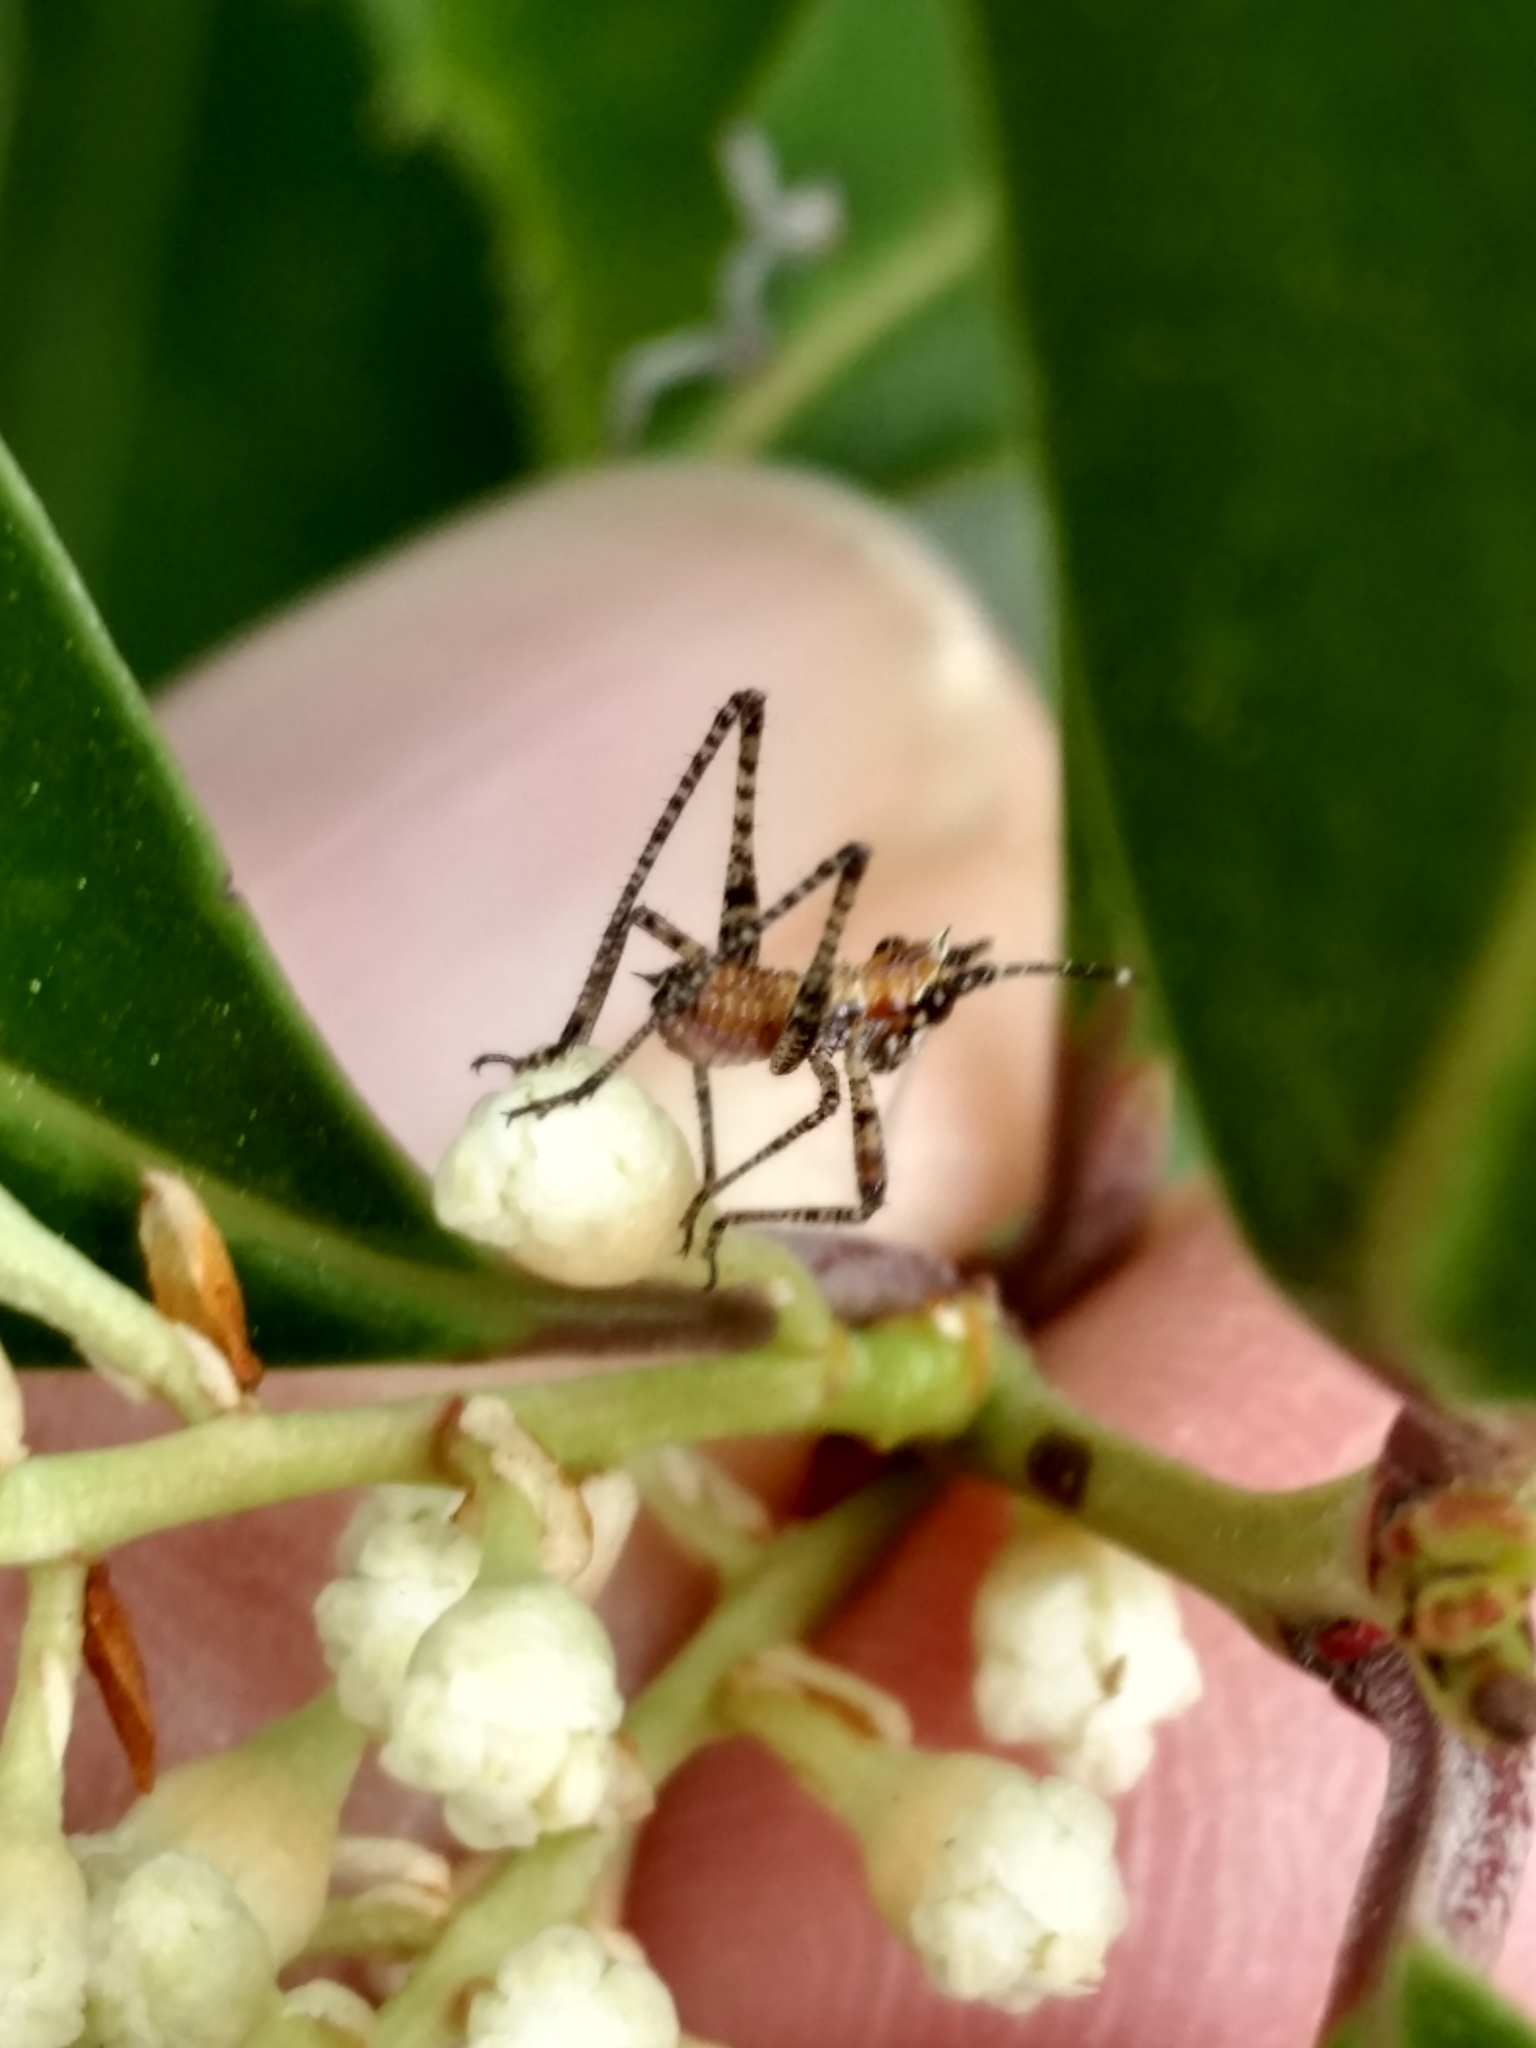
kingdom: Animalia
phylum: Arthropoda
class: Insecta
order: Orthoptera
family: Tettigoniidae
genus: Scudderia
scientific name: Scudderia
